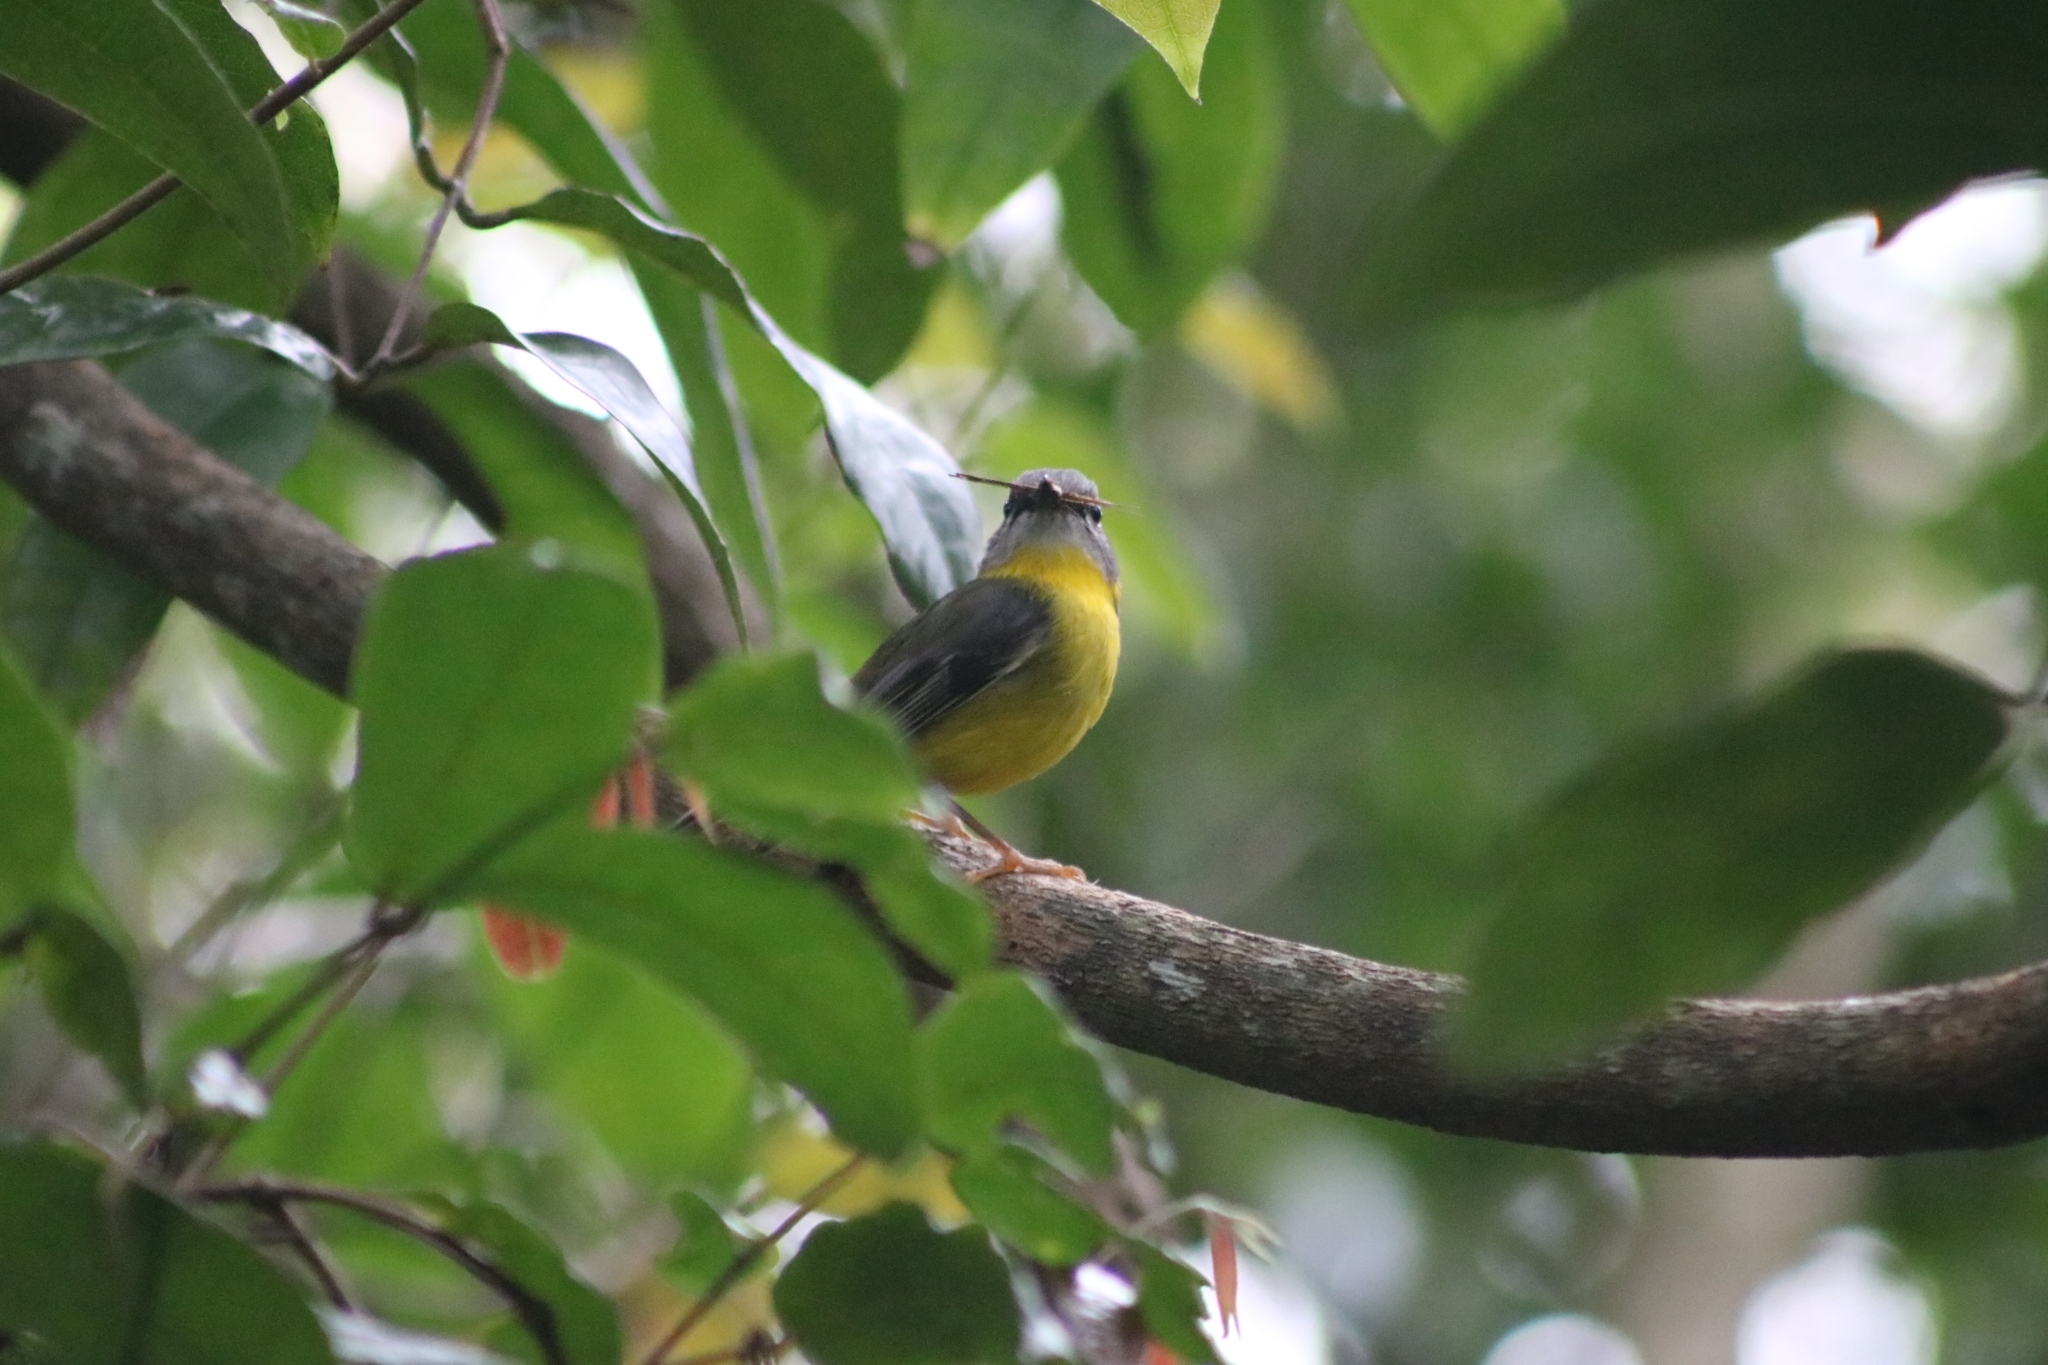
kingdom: Animalia
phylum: Chordata
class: Aves
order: Passeriformes
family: Petroicidae
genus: Eopsaltria
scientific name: Eopsaltria australis
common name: Eastern yellow robin
